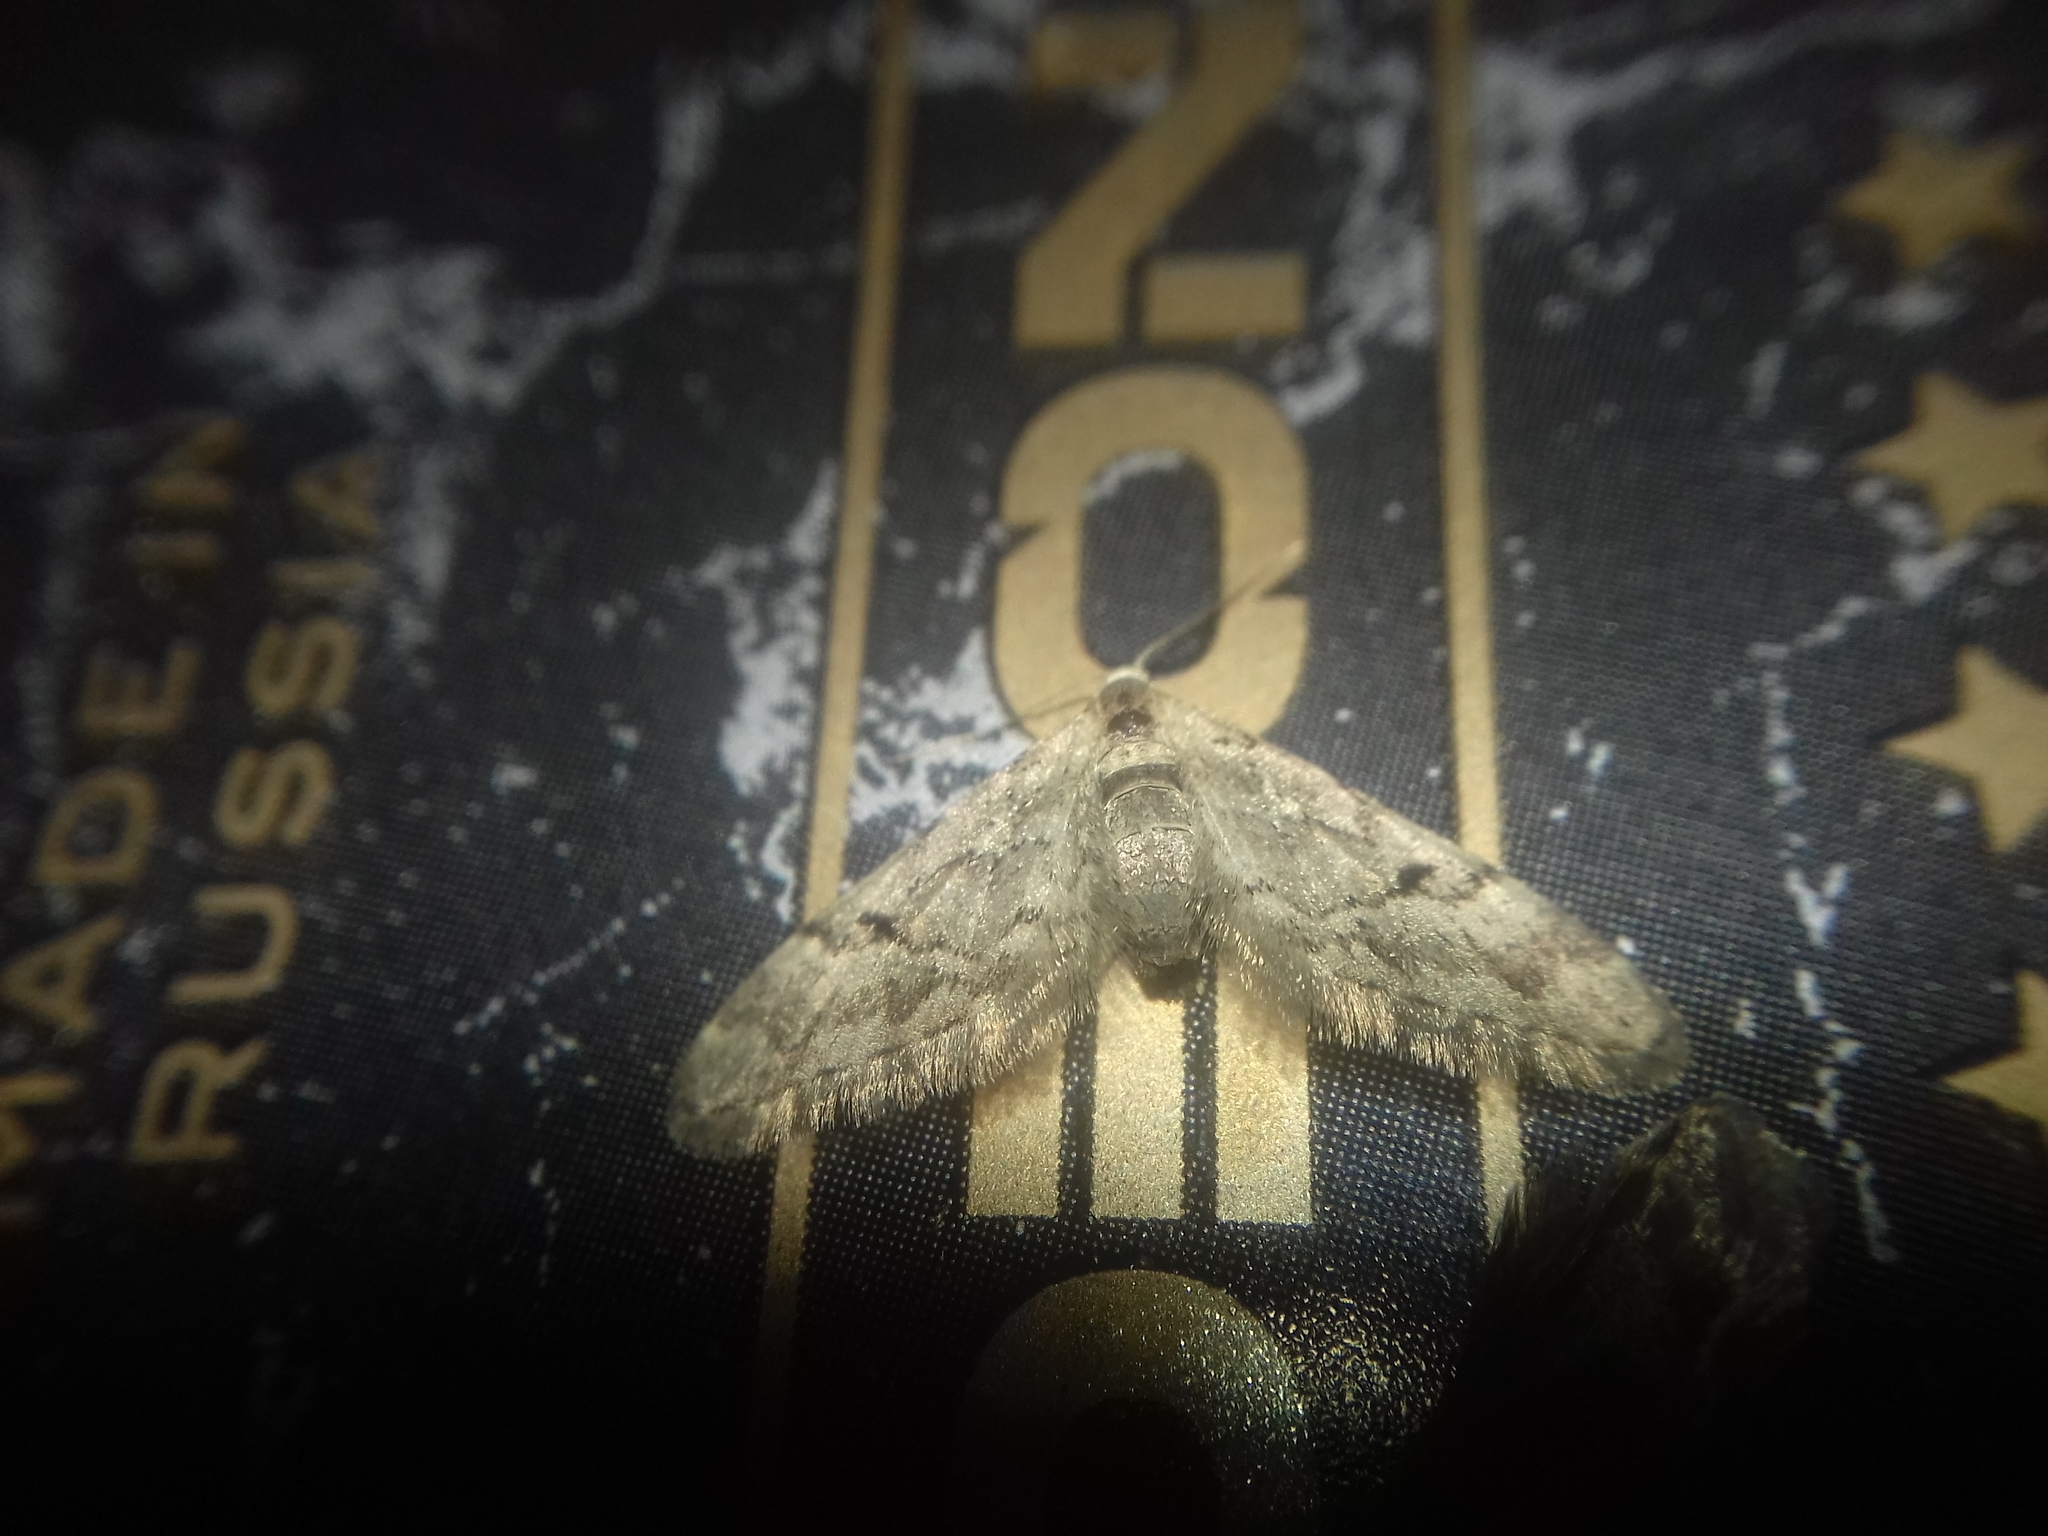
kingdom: Animalia
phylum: Arthropoda
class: Insecta
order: Lepidoptera
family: Geometridae
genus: Eupithecia
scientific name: Eupithecia lanceata
